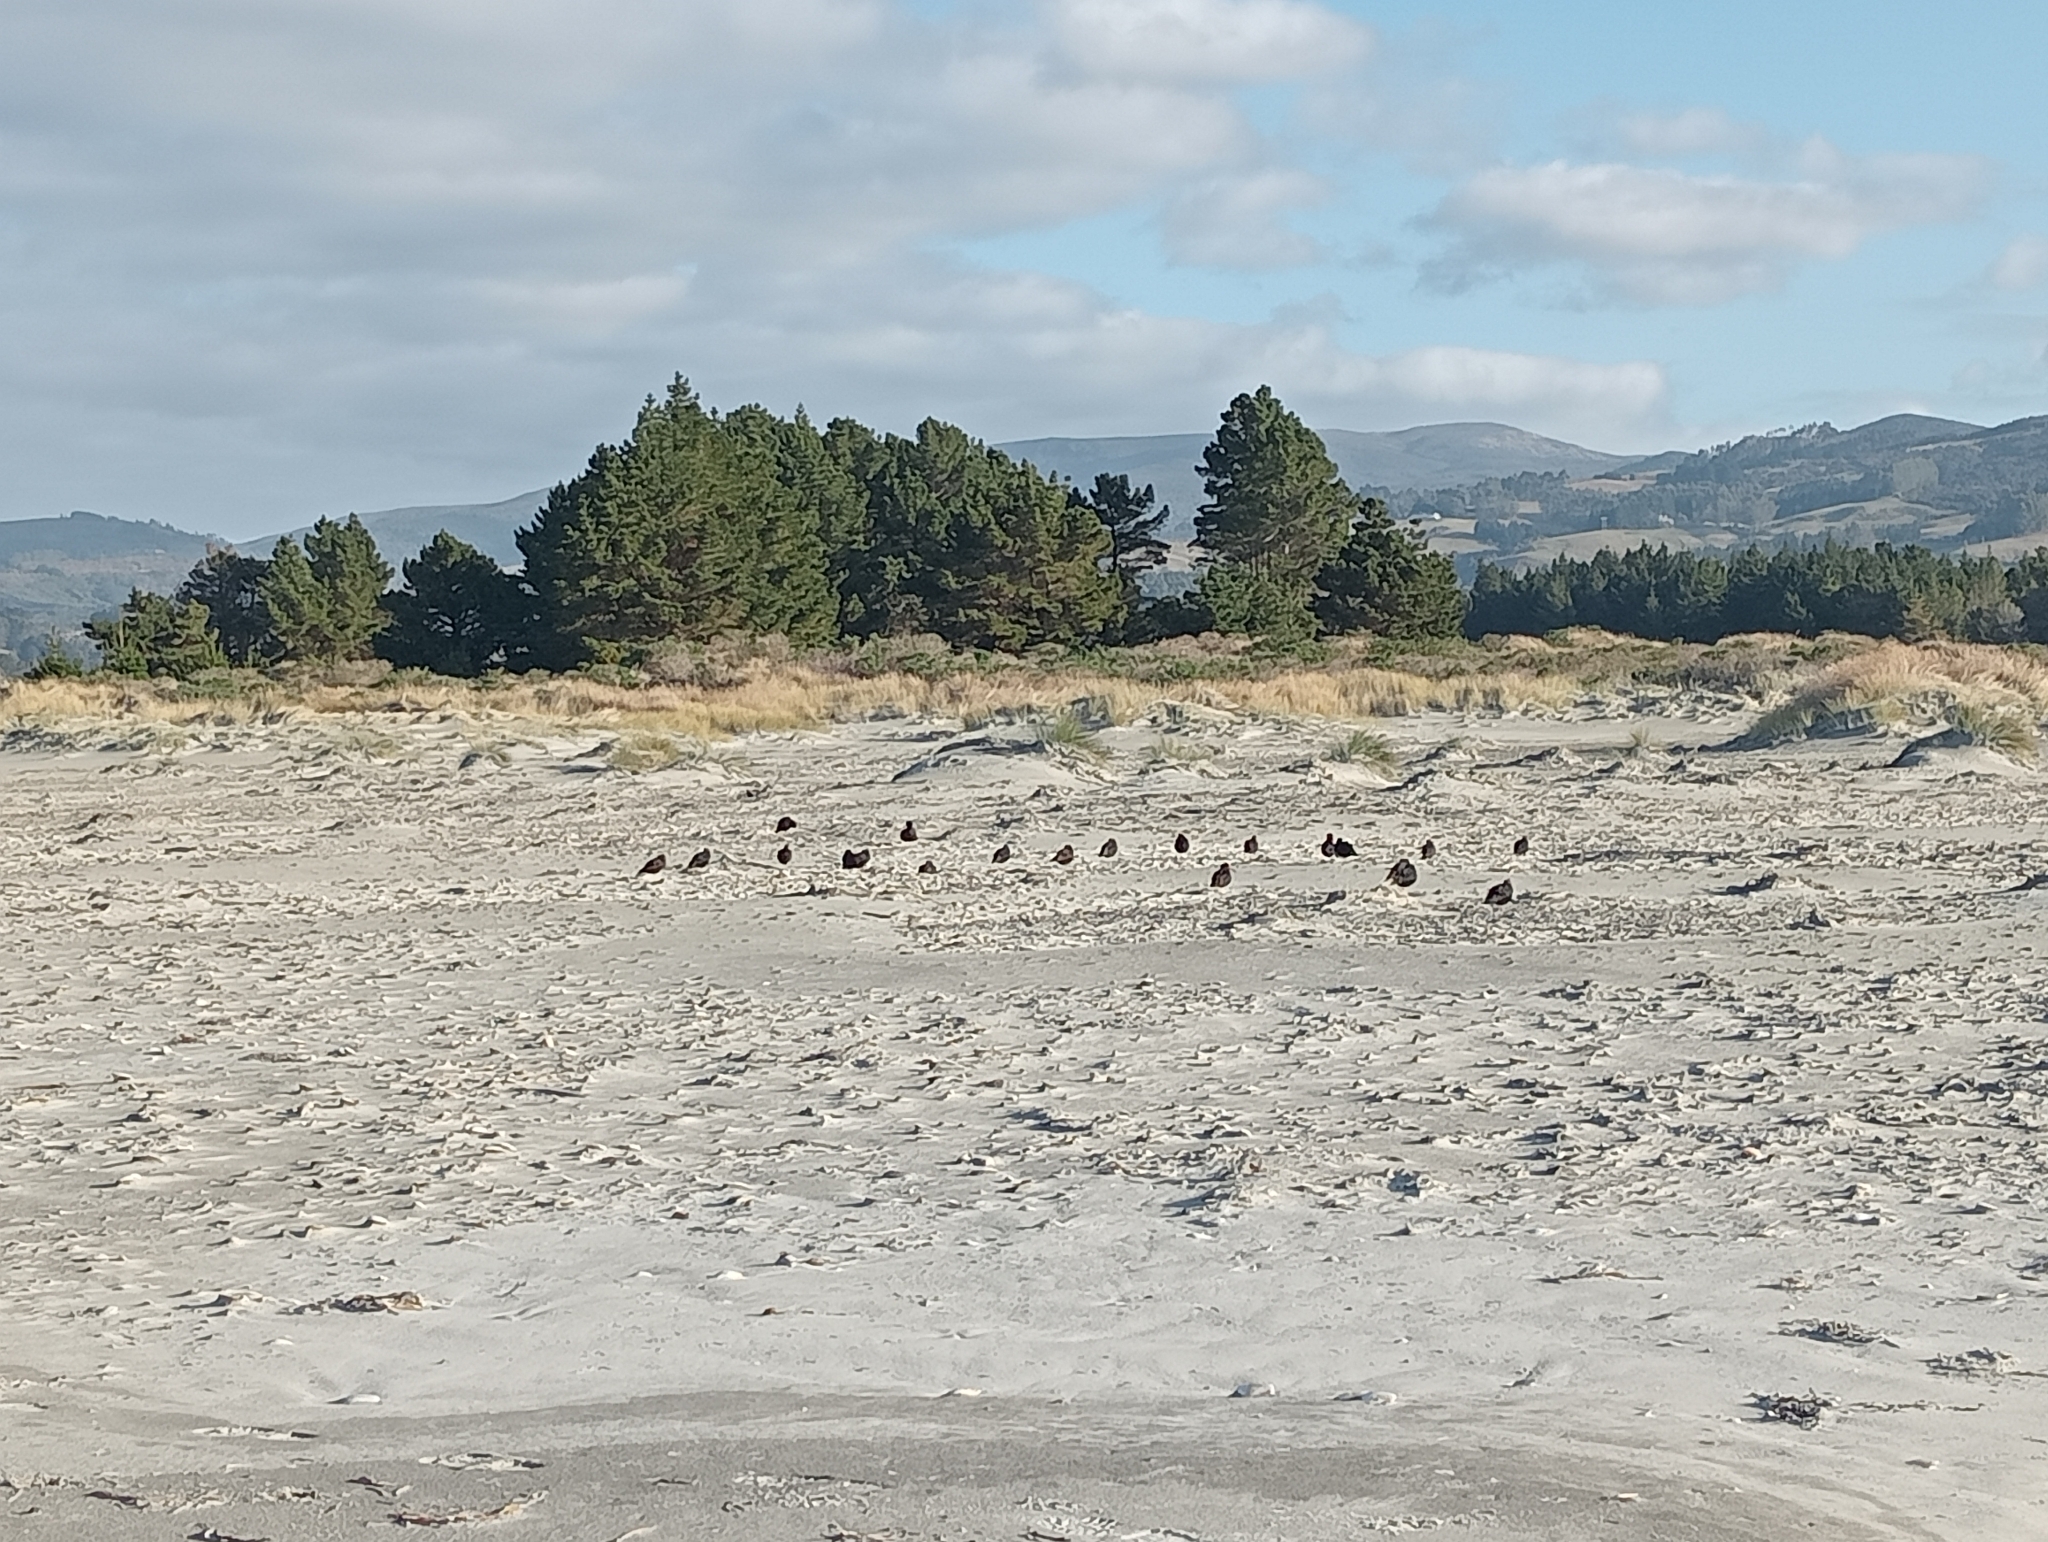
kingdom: Animalia
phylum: Chordata
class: Aves
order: Charadriiformes
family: Haematopodidae
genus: Haematopus
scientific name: Haematopus unicolor
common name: Variable oystercatcher
